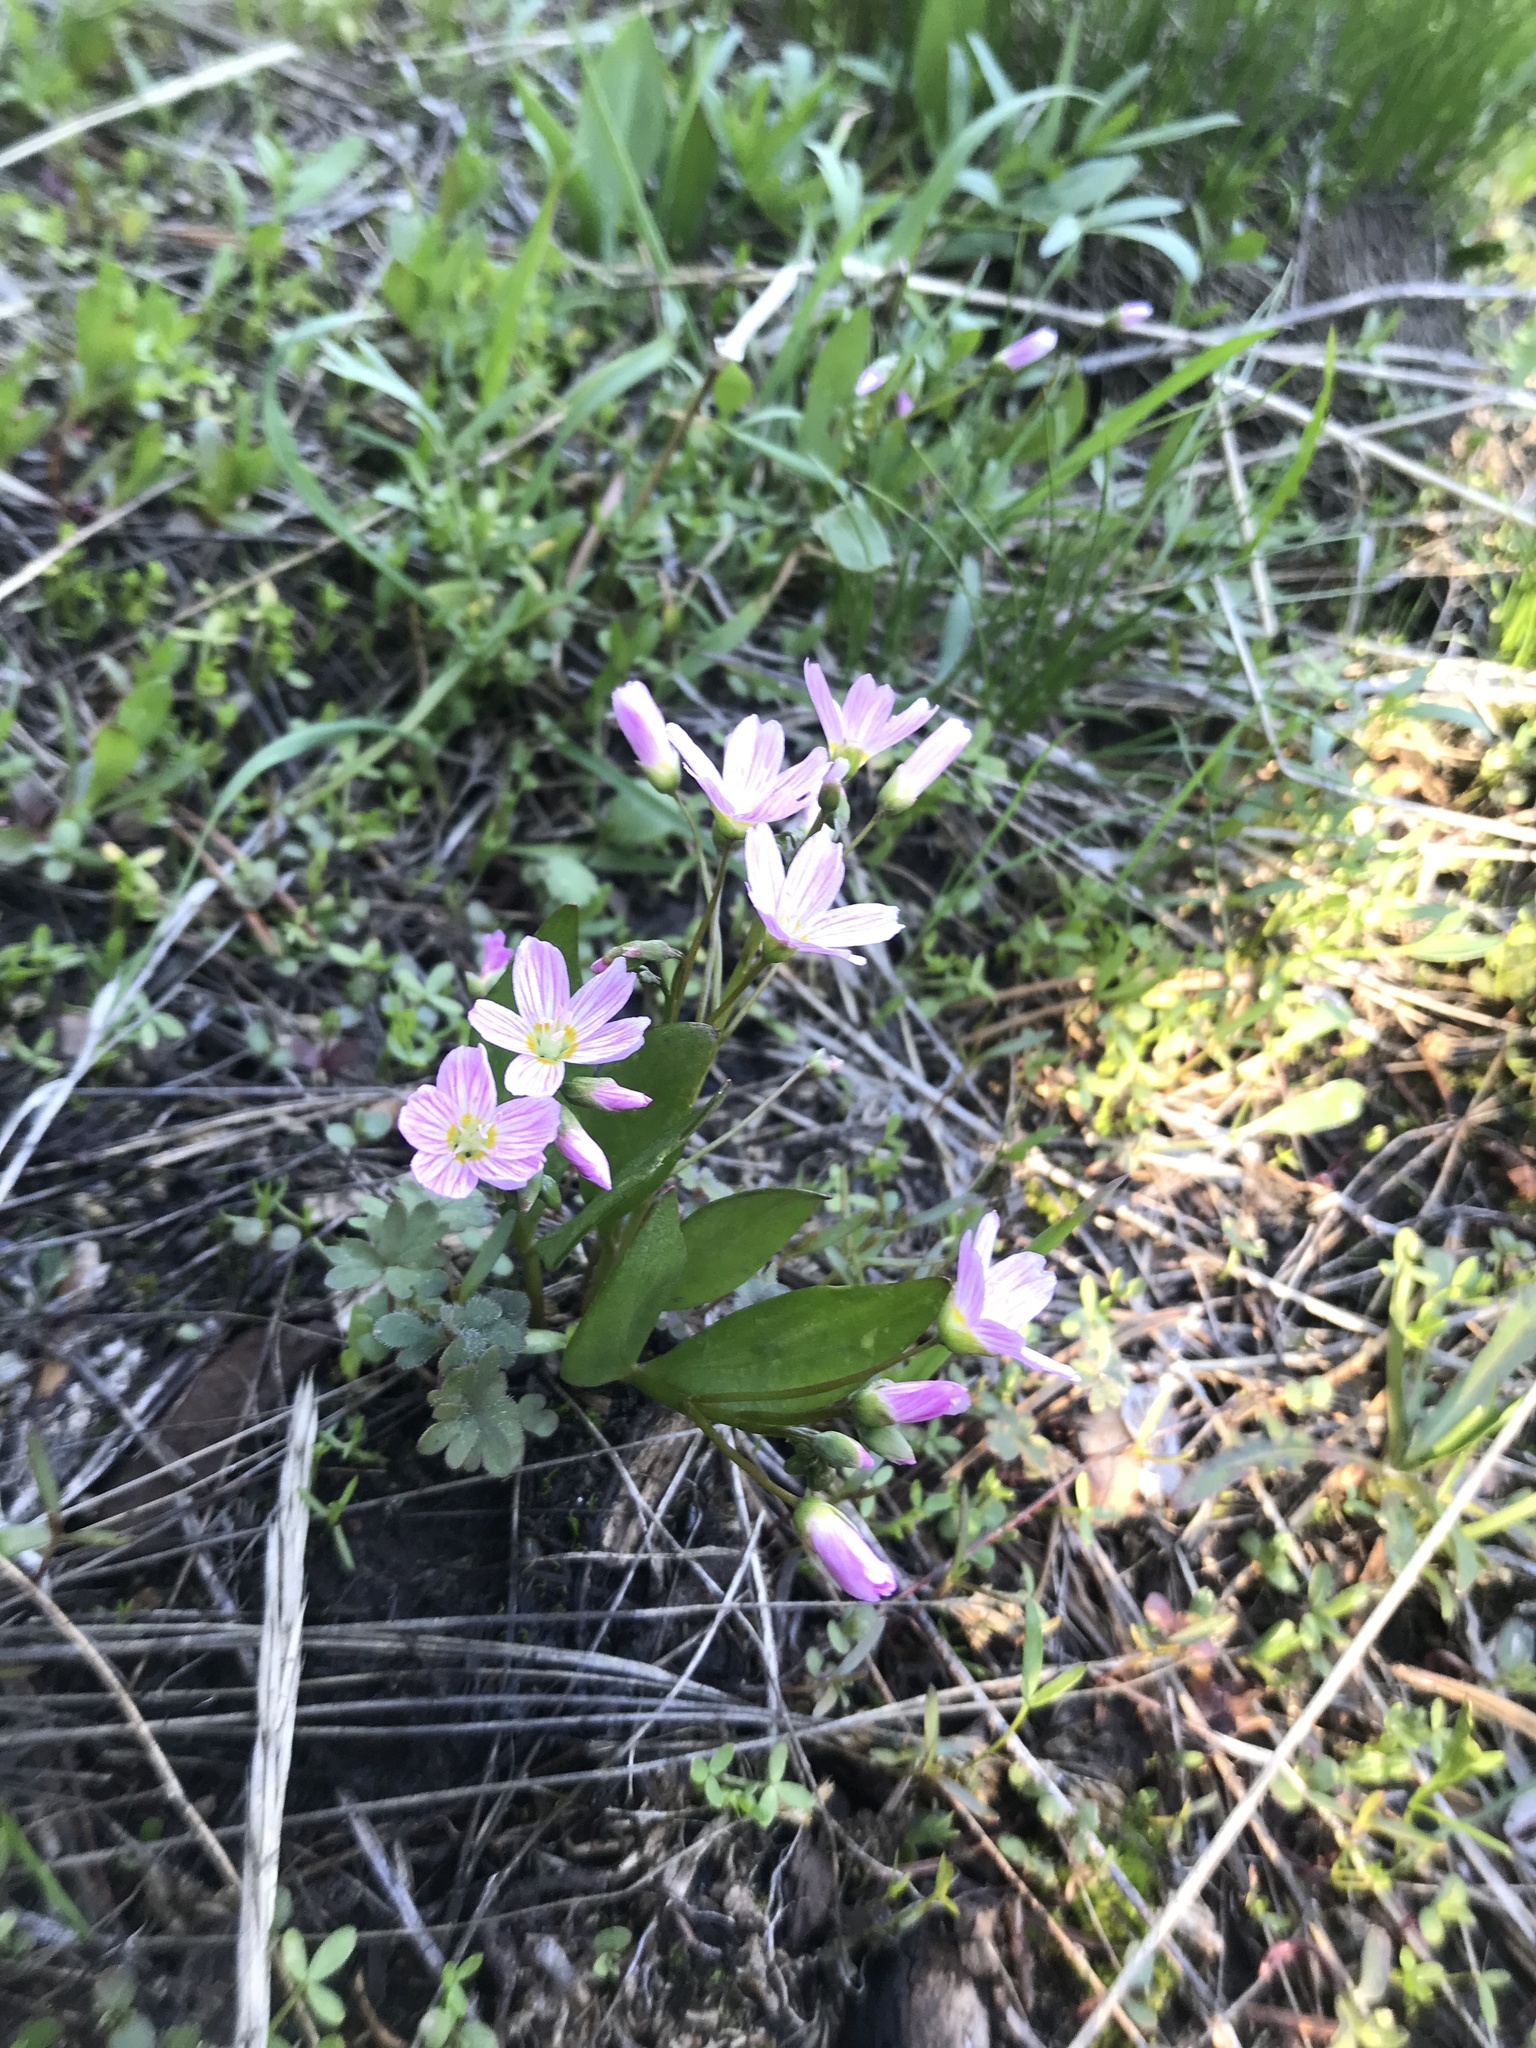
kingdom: Plantae
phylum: Tracheophyta
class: Magnoliopsida
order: Caryophyllales
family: Montiaceae
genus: Claytonia
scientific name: Claytonia lanceolata
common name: Western spring-beauty
